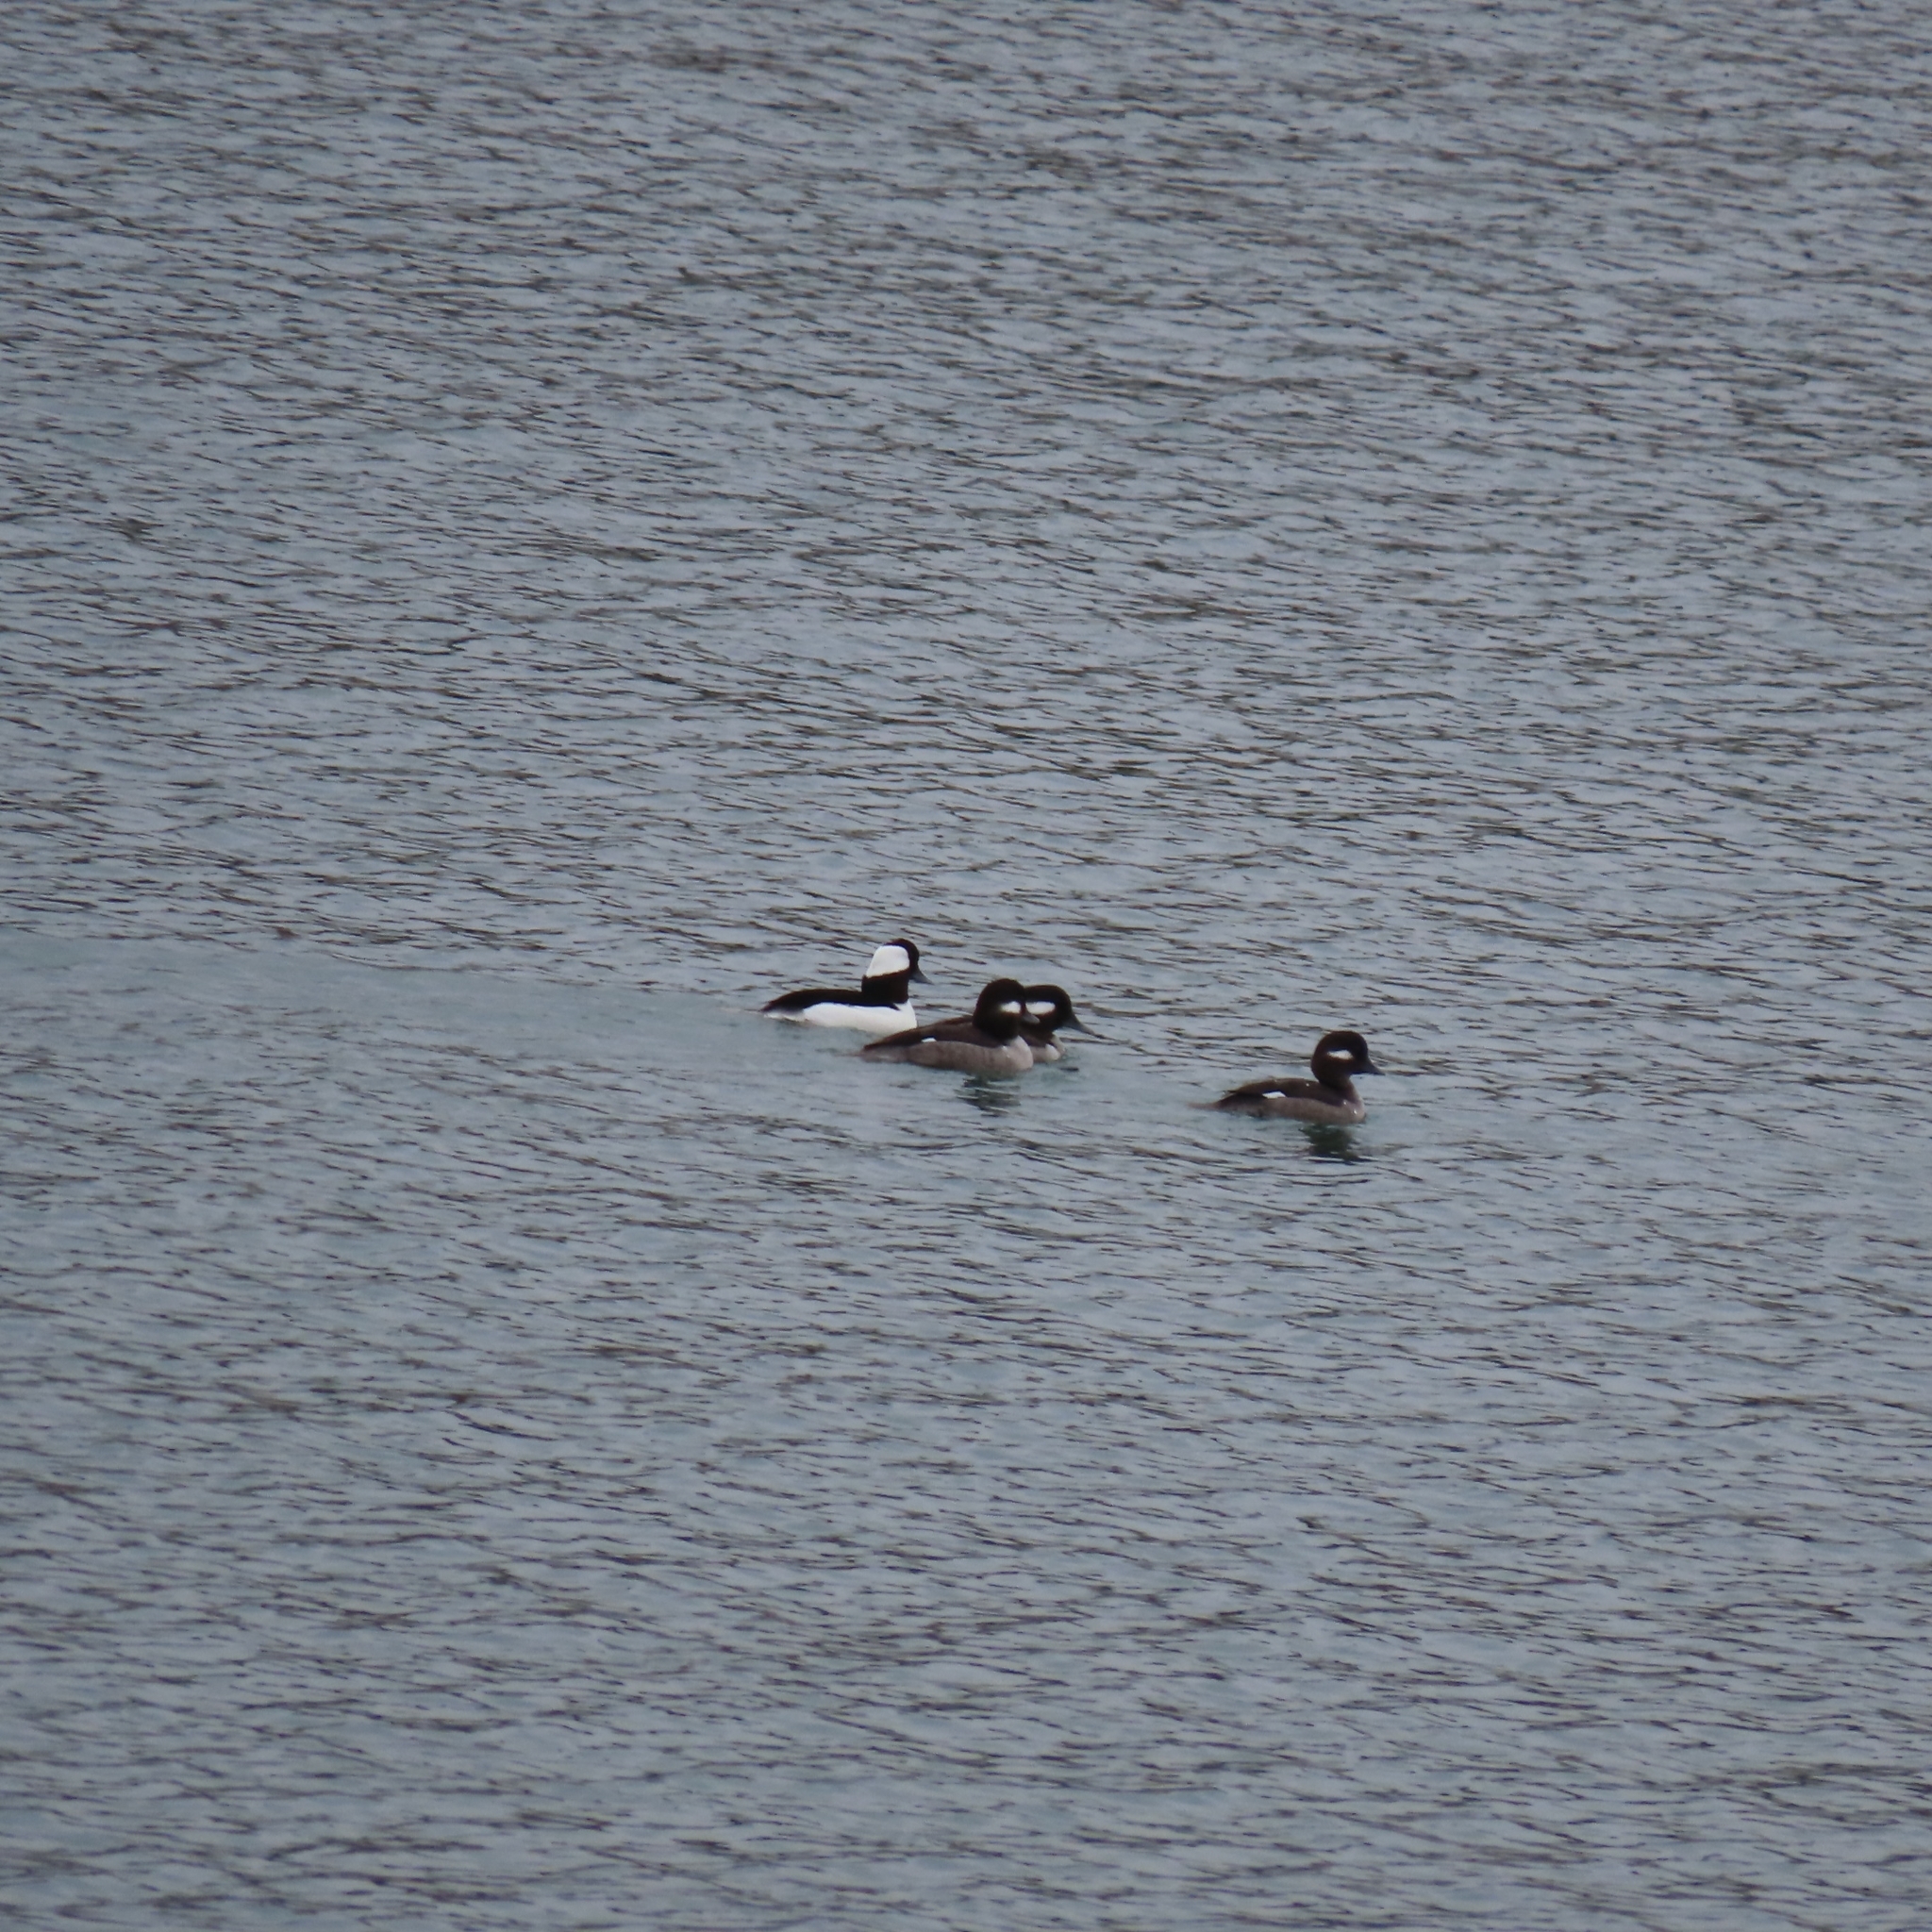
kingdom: Animalia
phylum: Chordata
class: Aves
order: Anseriformes
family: Anatidae
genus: Bucephala
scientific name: Bucephala albeola
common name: Bufflehead
